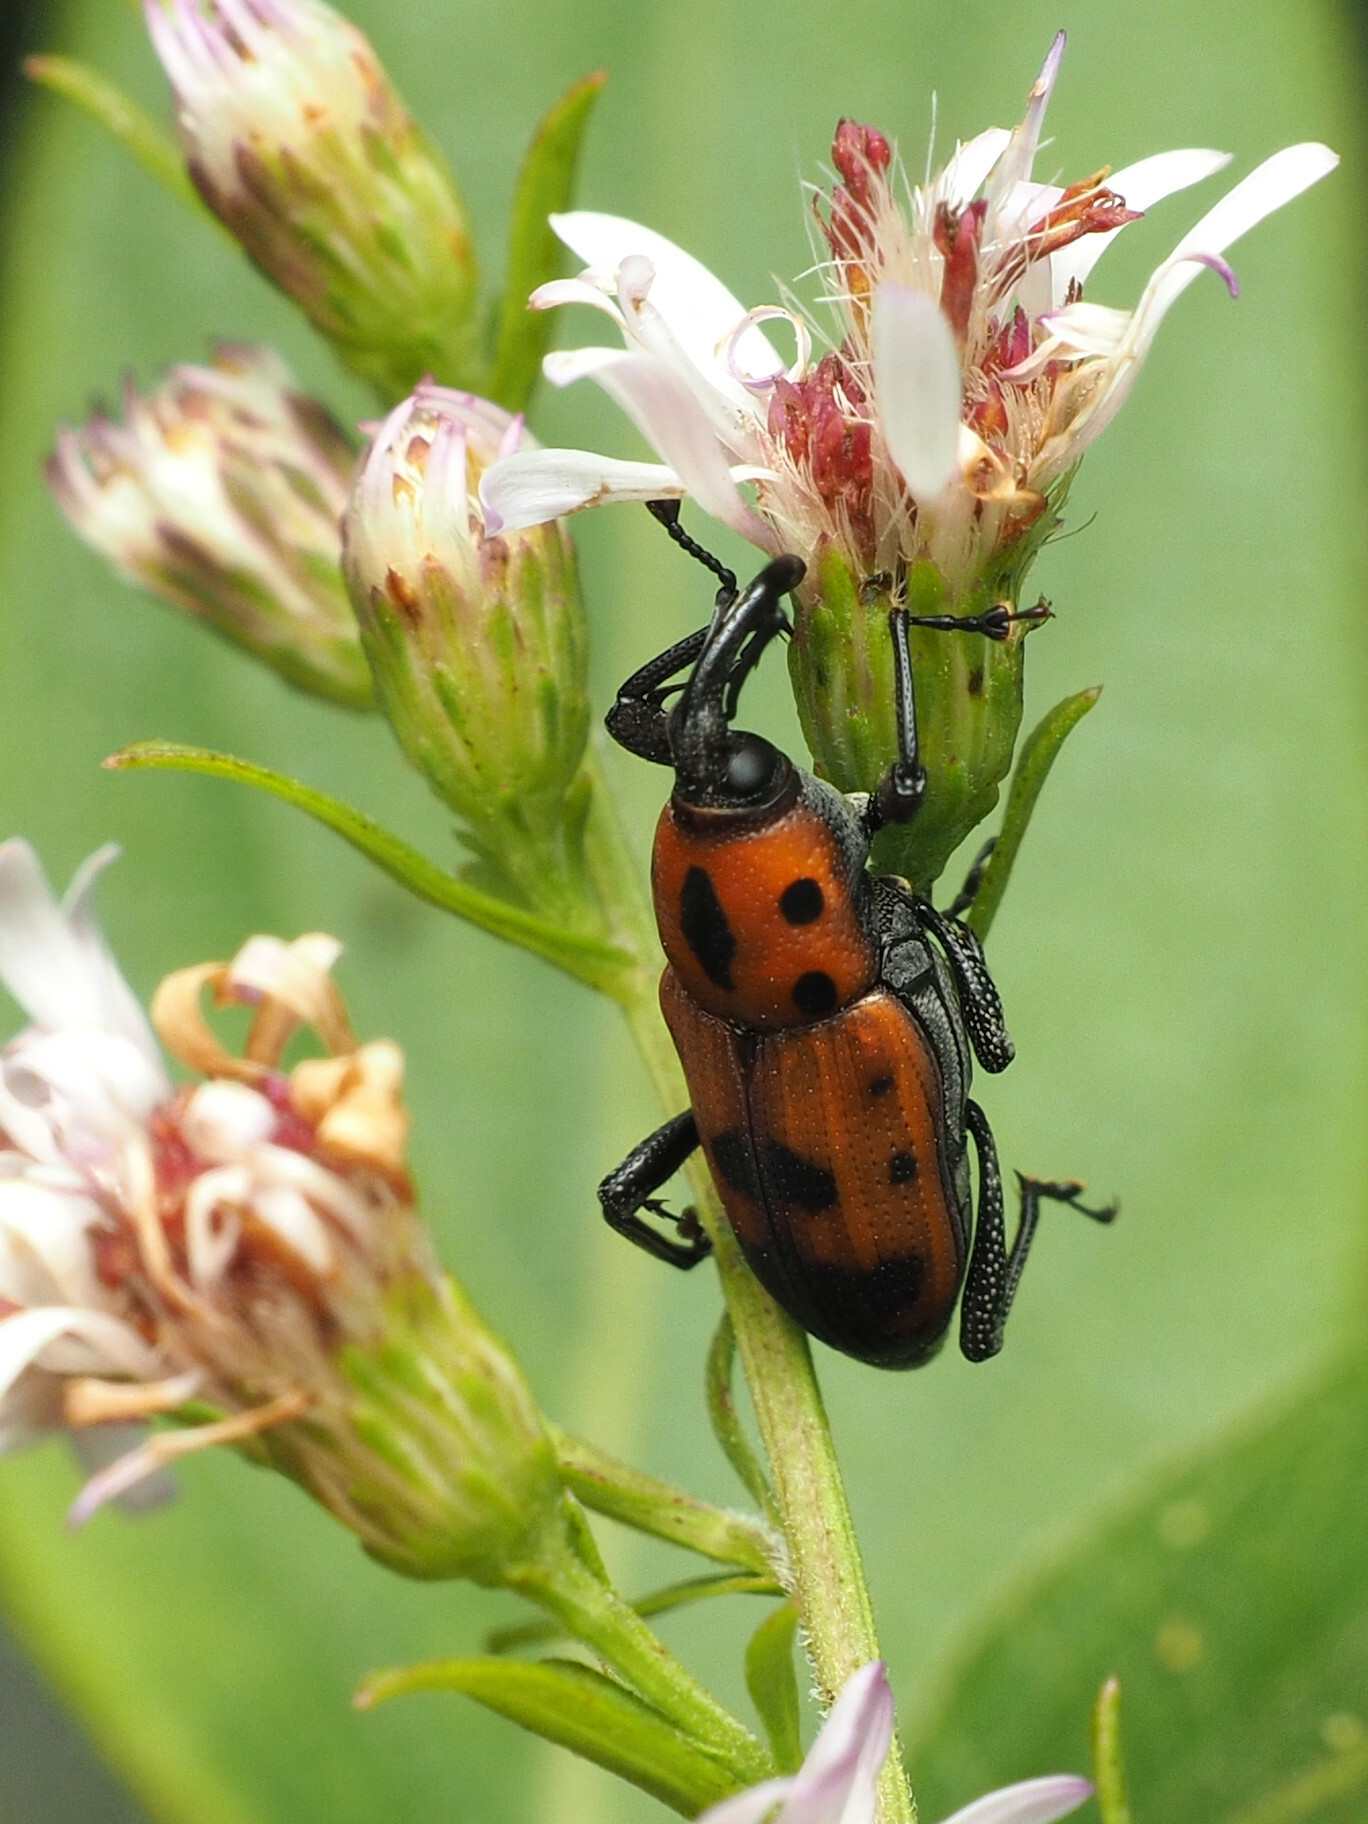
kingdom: Animalia
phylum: Arthropoda
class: Insecta
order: Coleoptera
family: Dryophthoridae
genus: Rhodobaenus
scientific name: Rhodobaenus quinquepunctatus
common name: Cocklebur weevil
